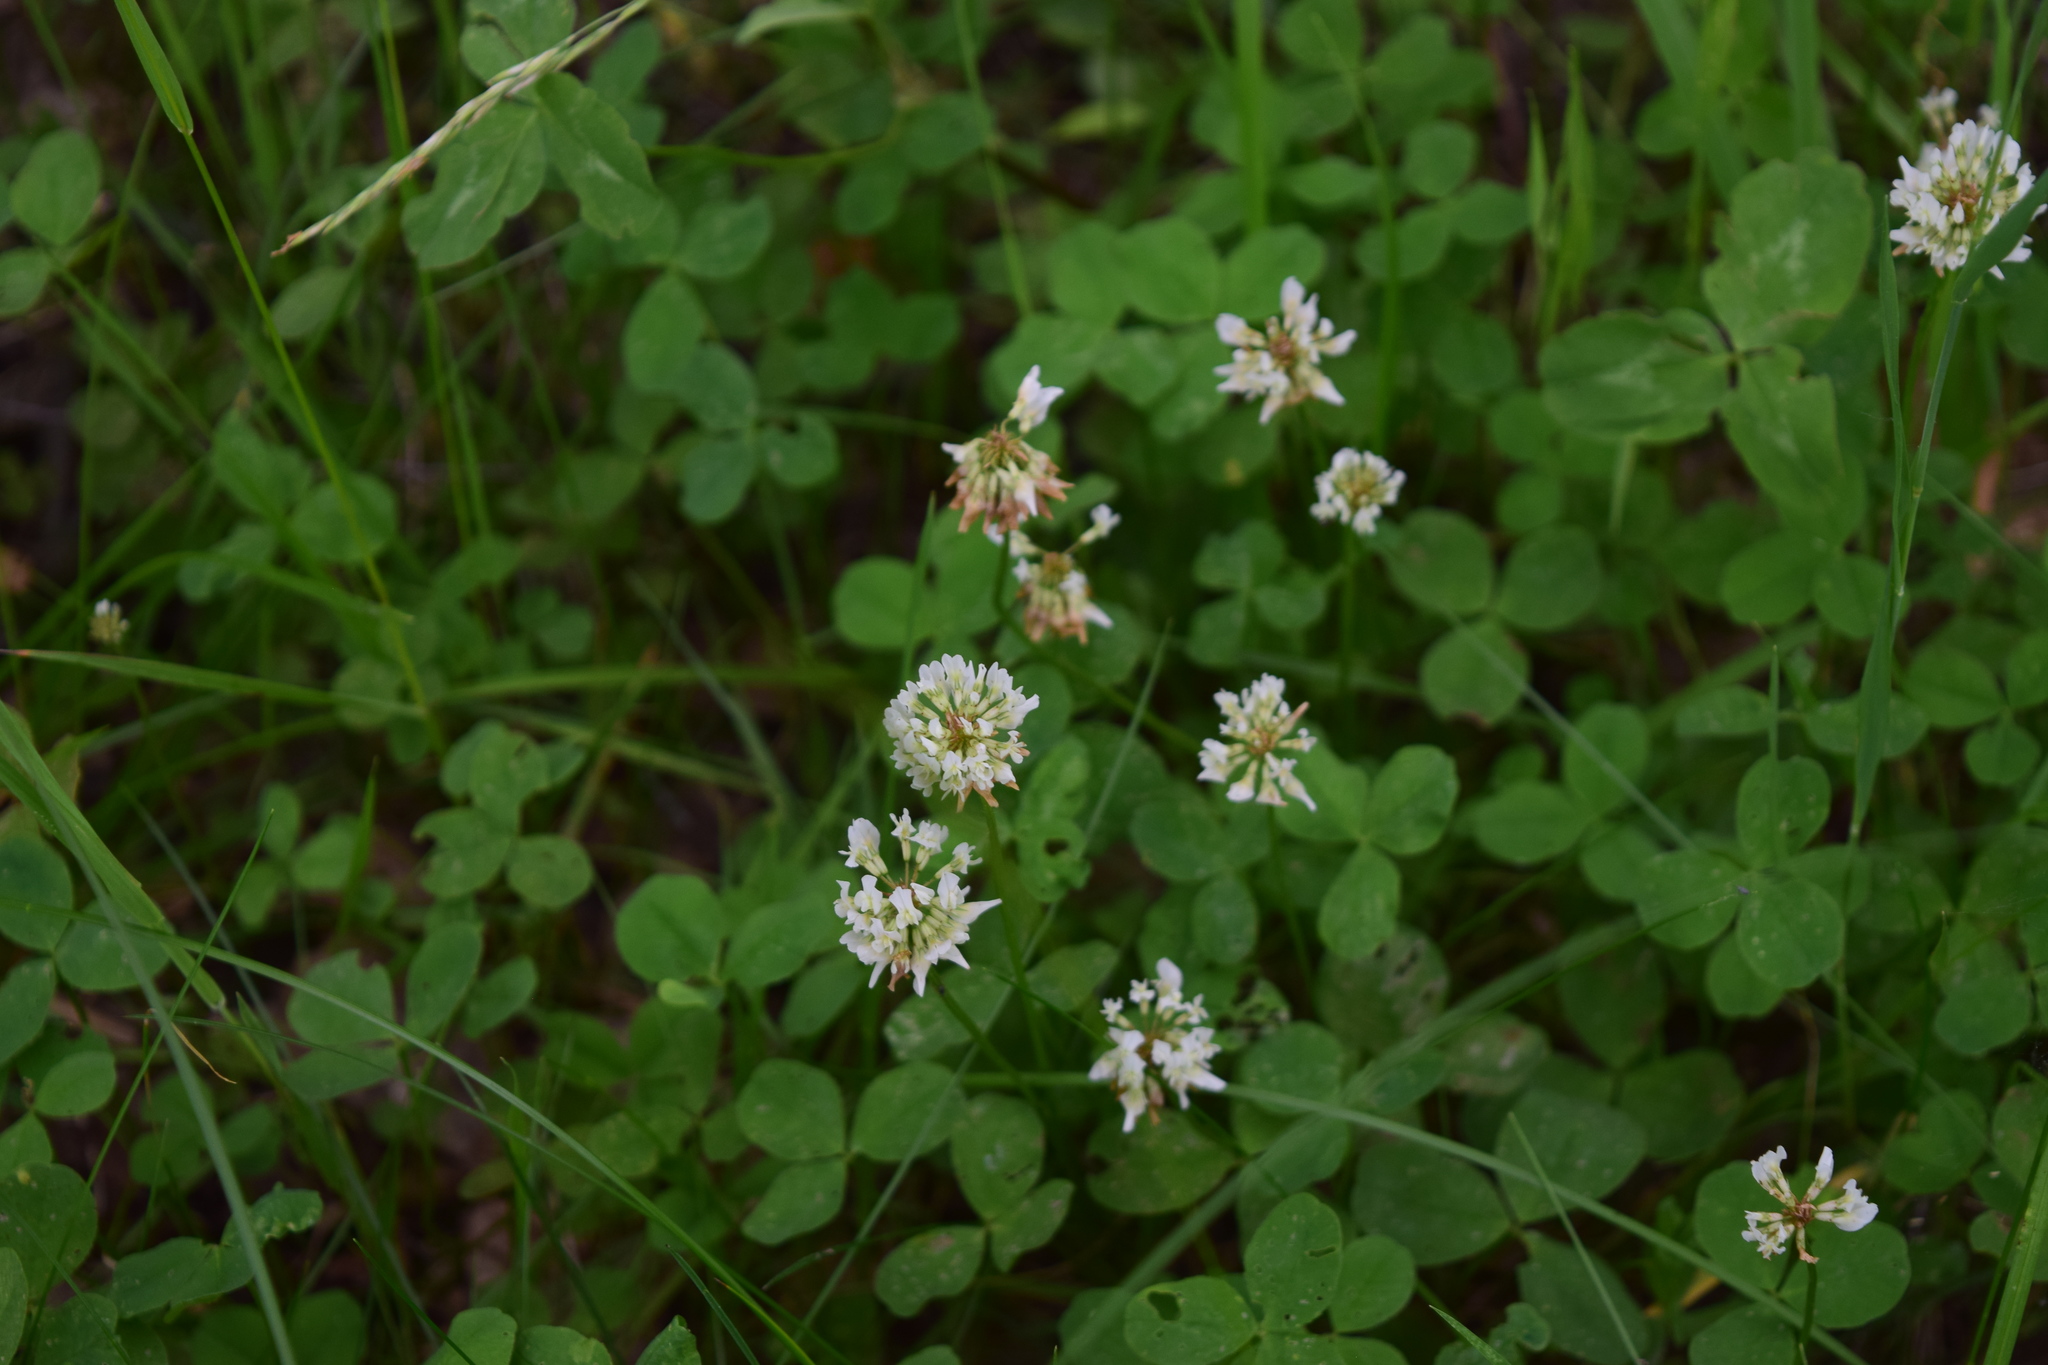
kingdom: Plantae
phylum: Tracheophyta
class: Magnoliopsida
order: Fabales
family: Fabaceae
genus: Trifolium
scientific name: Trifolium repens
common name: White clover
